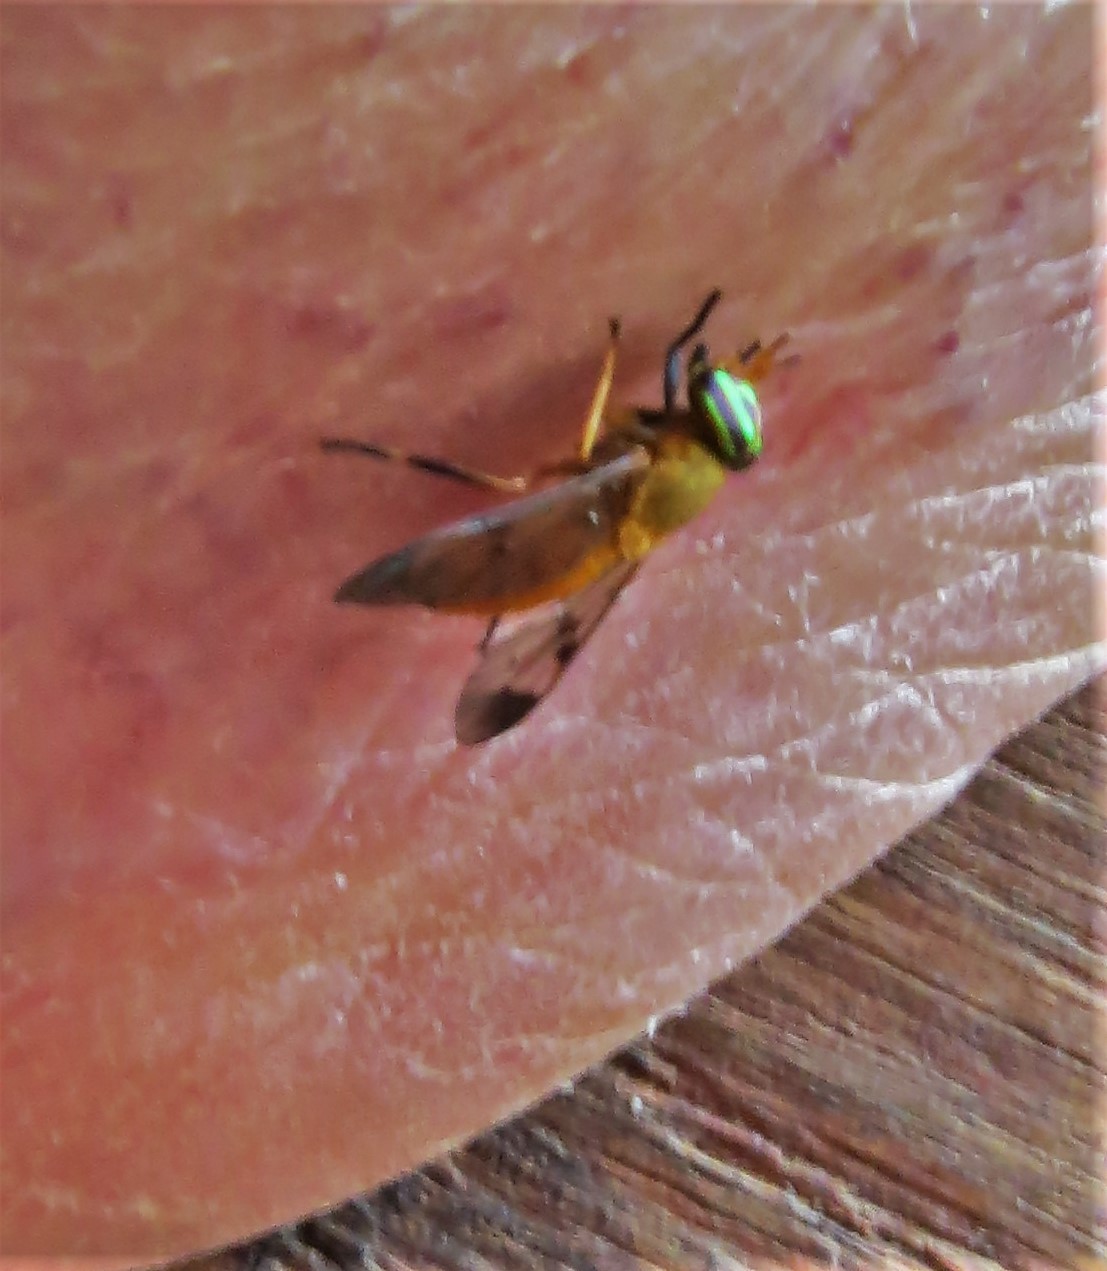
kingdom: Animalia
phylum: Arthropoda
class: Insecta
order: Diptera
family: Tabanidae
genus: Diachlorus
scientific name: Diachlorus ferrugatus
